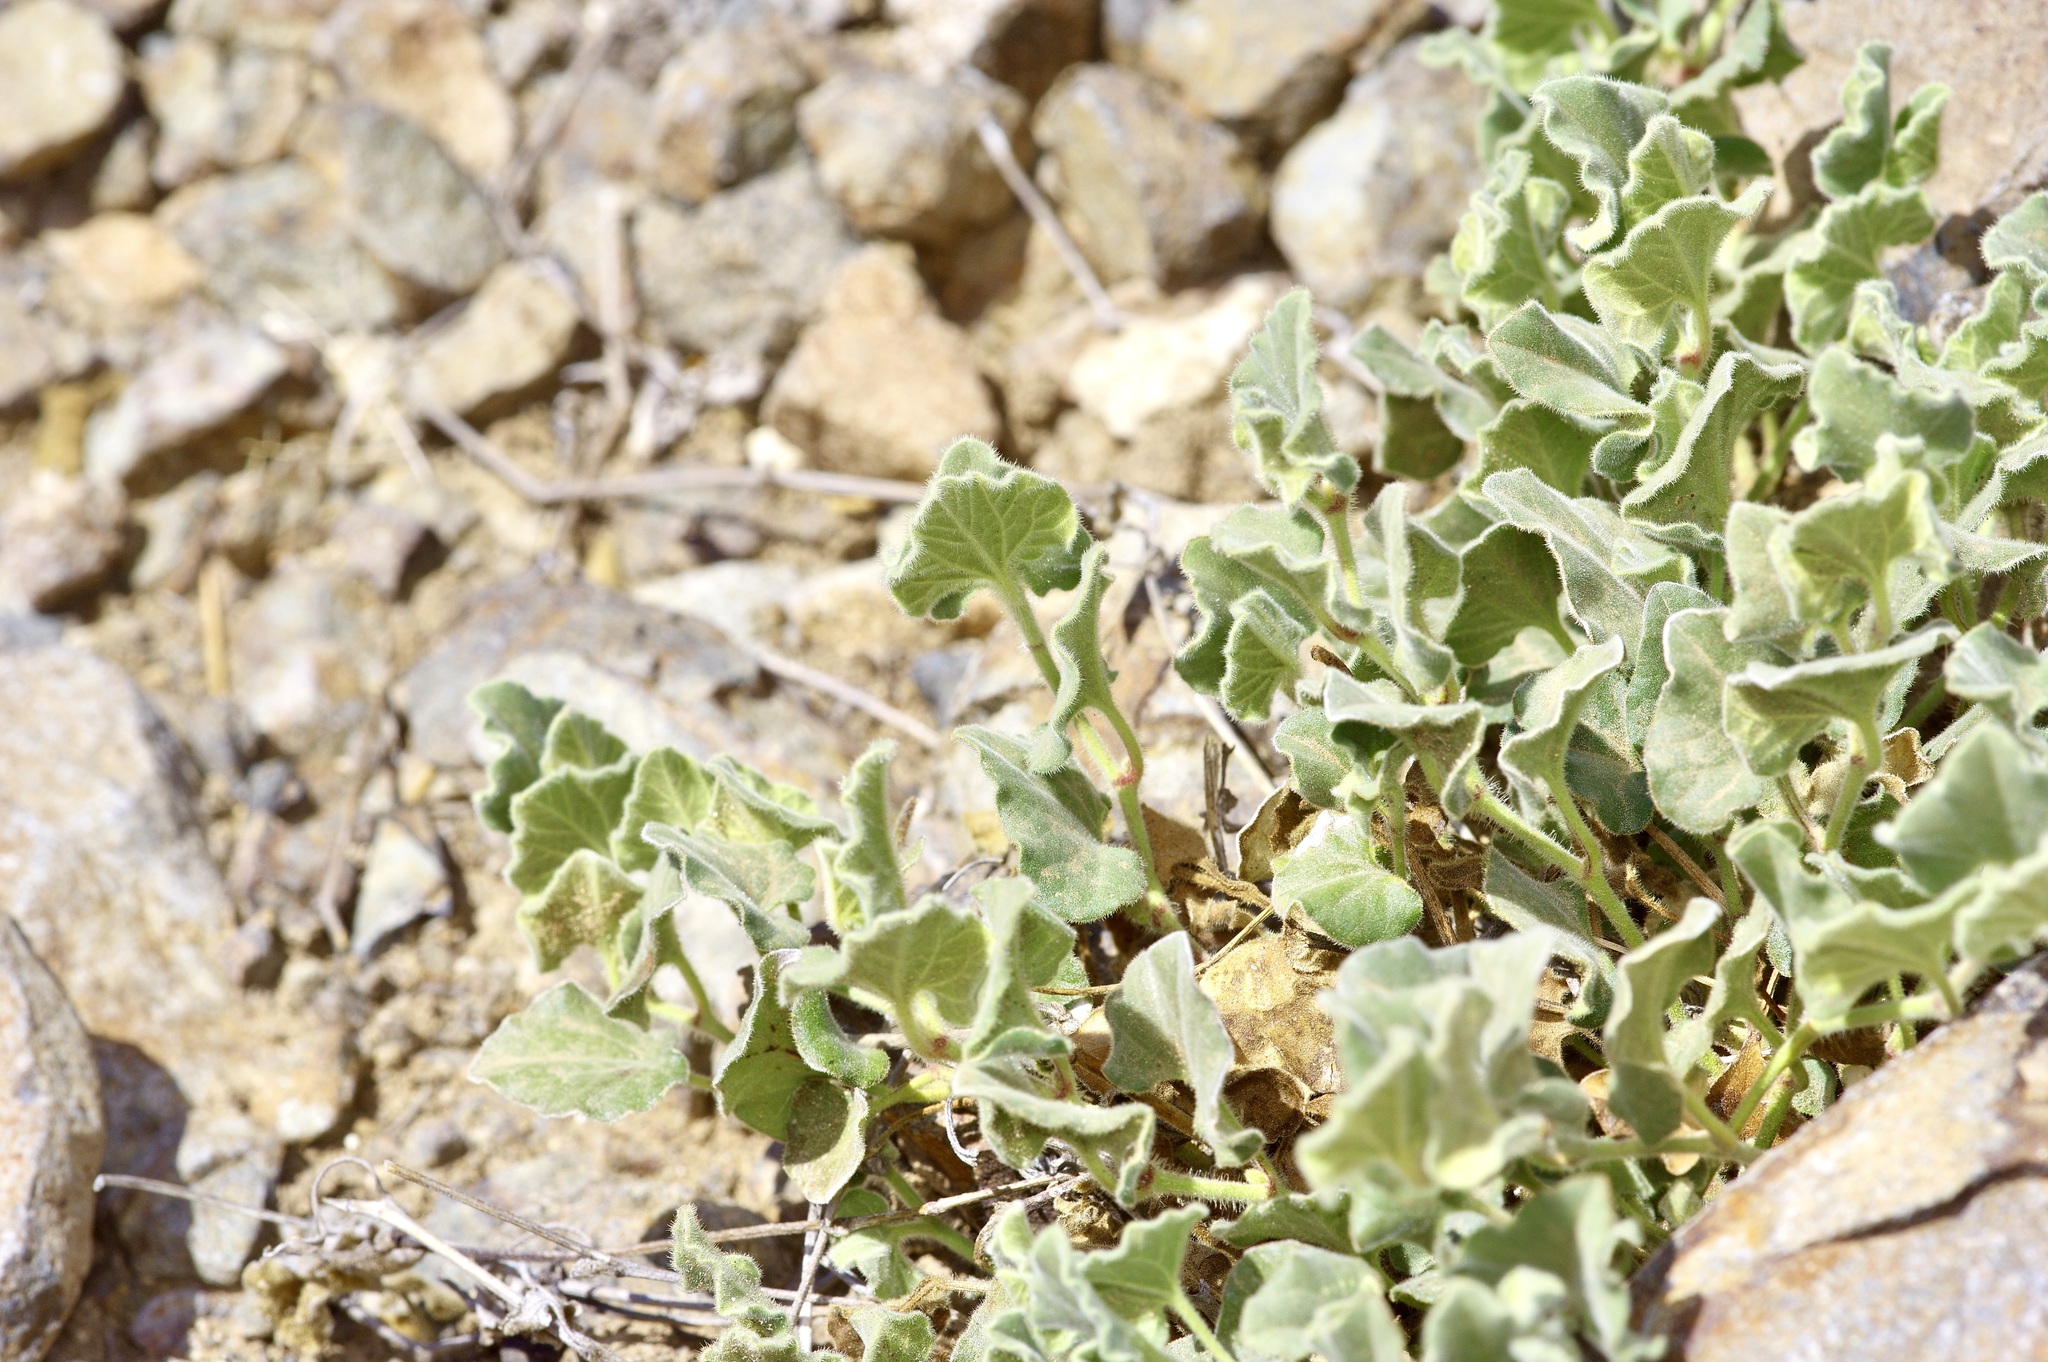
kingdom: Plantae
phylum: Tracheophyta
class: Magnoliopsida
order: Piperales
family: Aristolochiaceae
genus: Aristolochia
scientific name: Aristolochia wrightii
